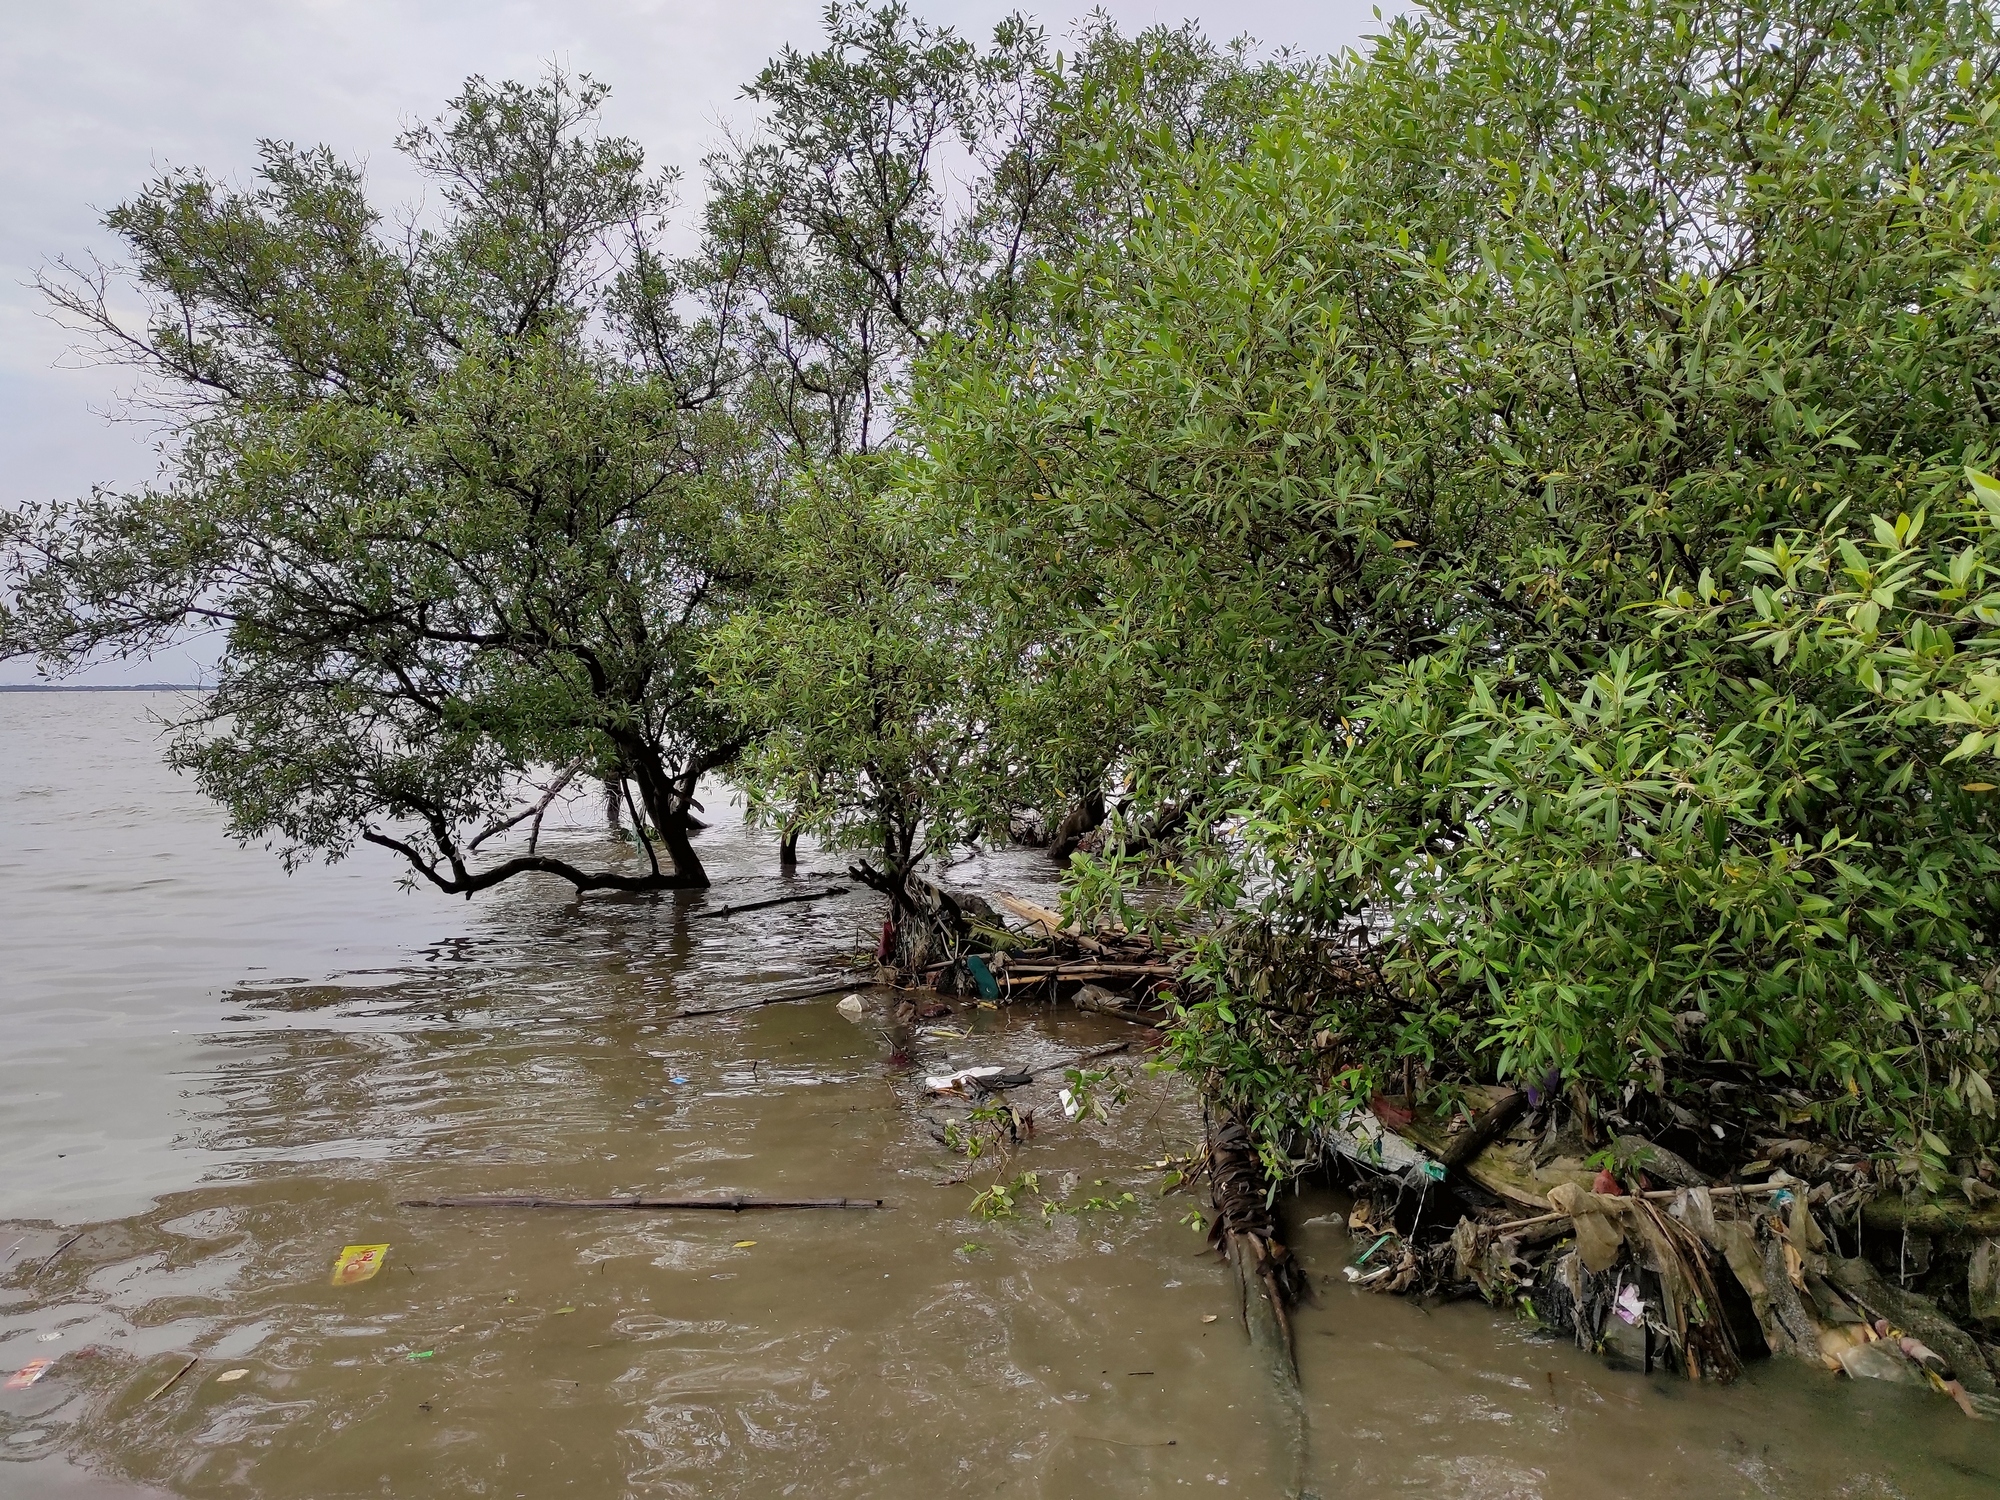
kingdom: Plantae
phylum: Tracheophyta
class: Magnoliopsida
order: Lamiales
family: Acanthaceae
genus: Avicennia
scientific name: Avicennia alba
